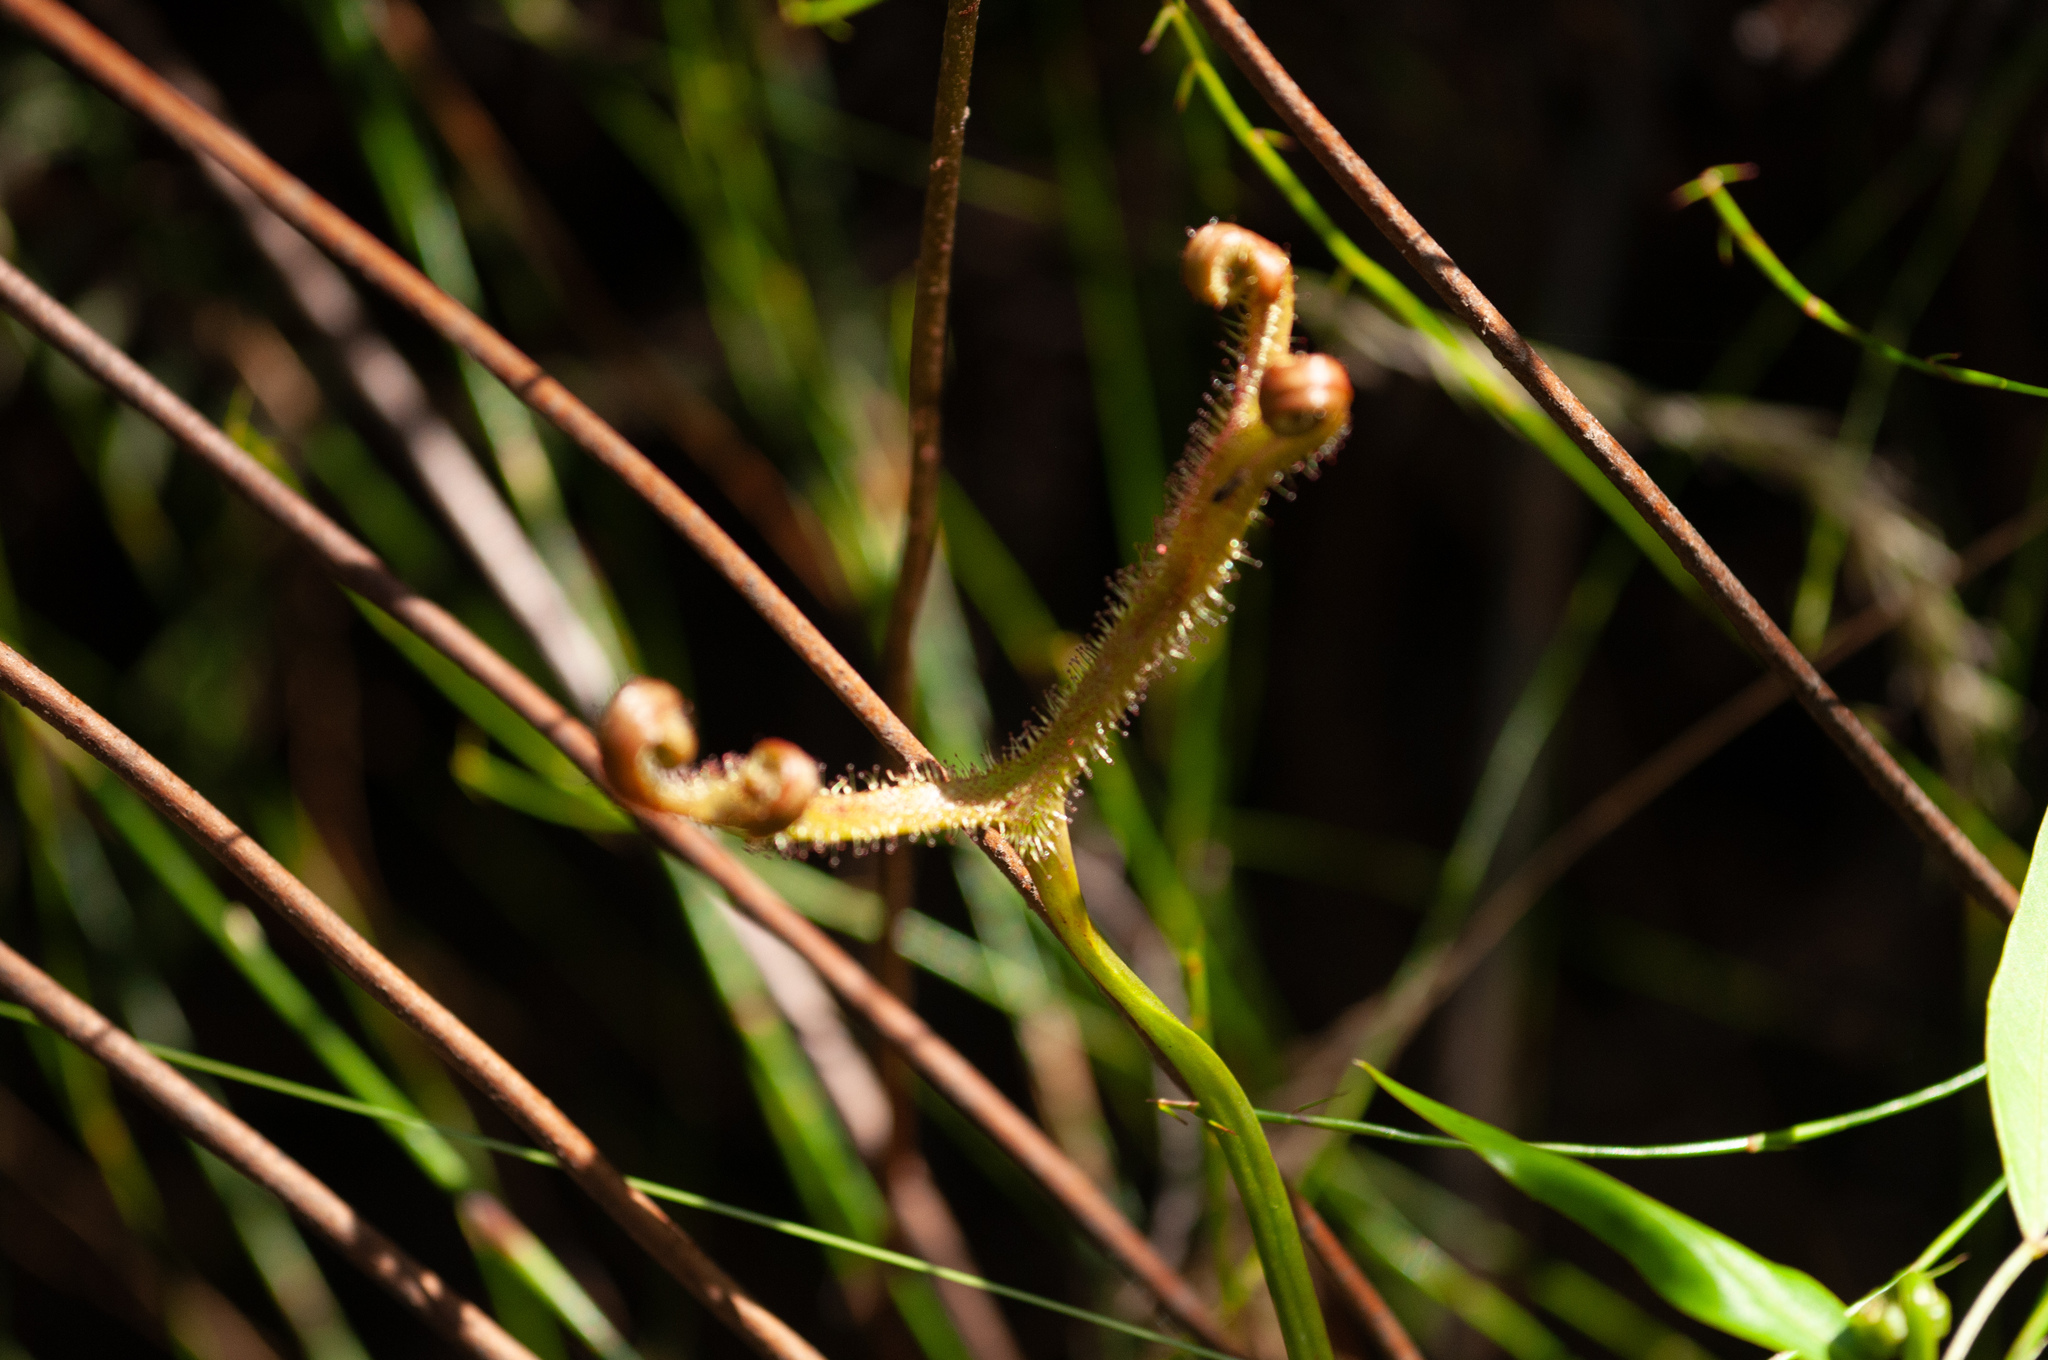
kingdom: Plantae
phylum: Tracheophyta
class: Magnoliopsida
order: Caryophyllales
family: Droseraceae
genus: Drosera
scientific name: Drosera binata
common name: Forked sundew
